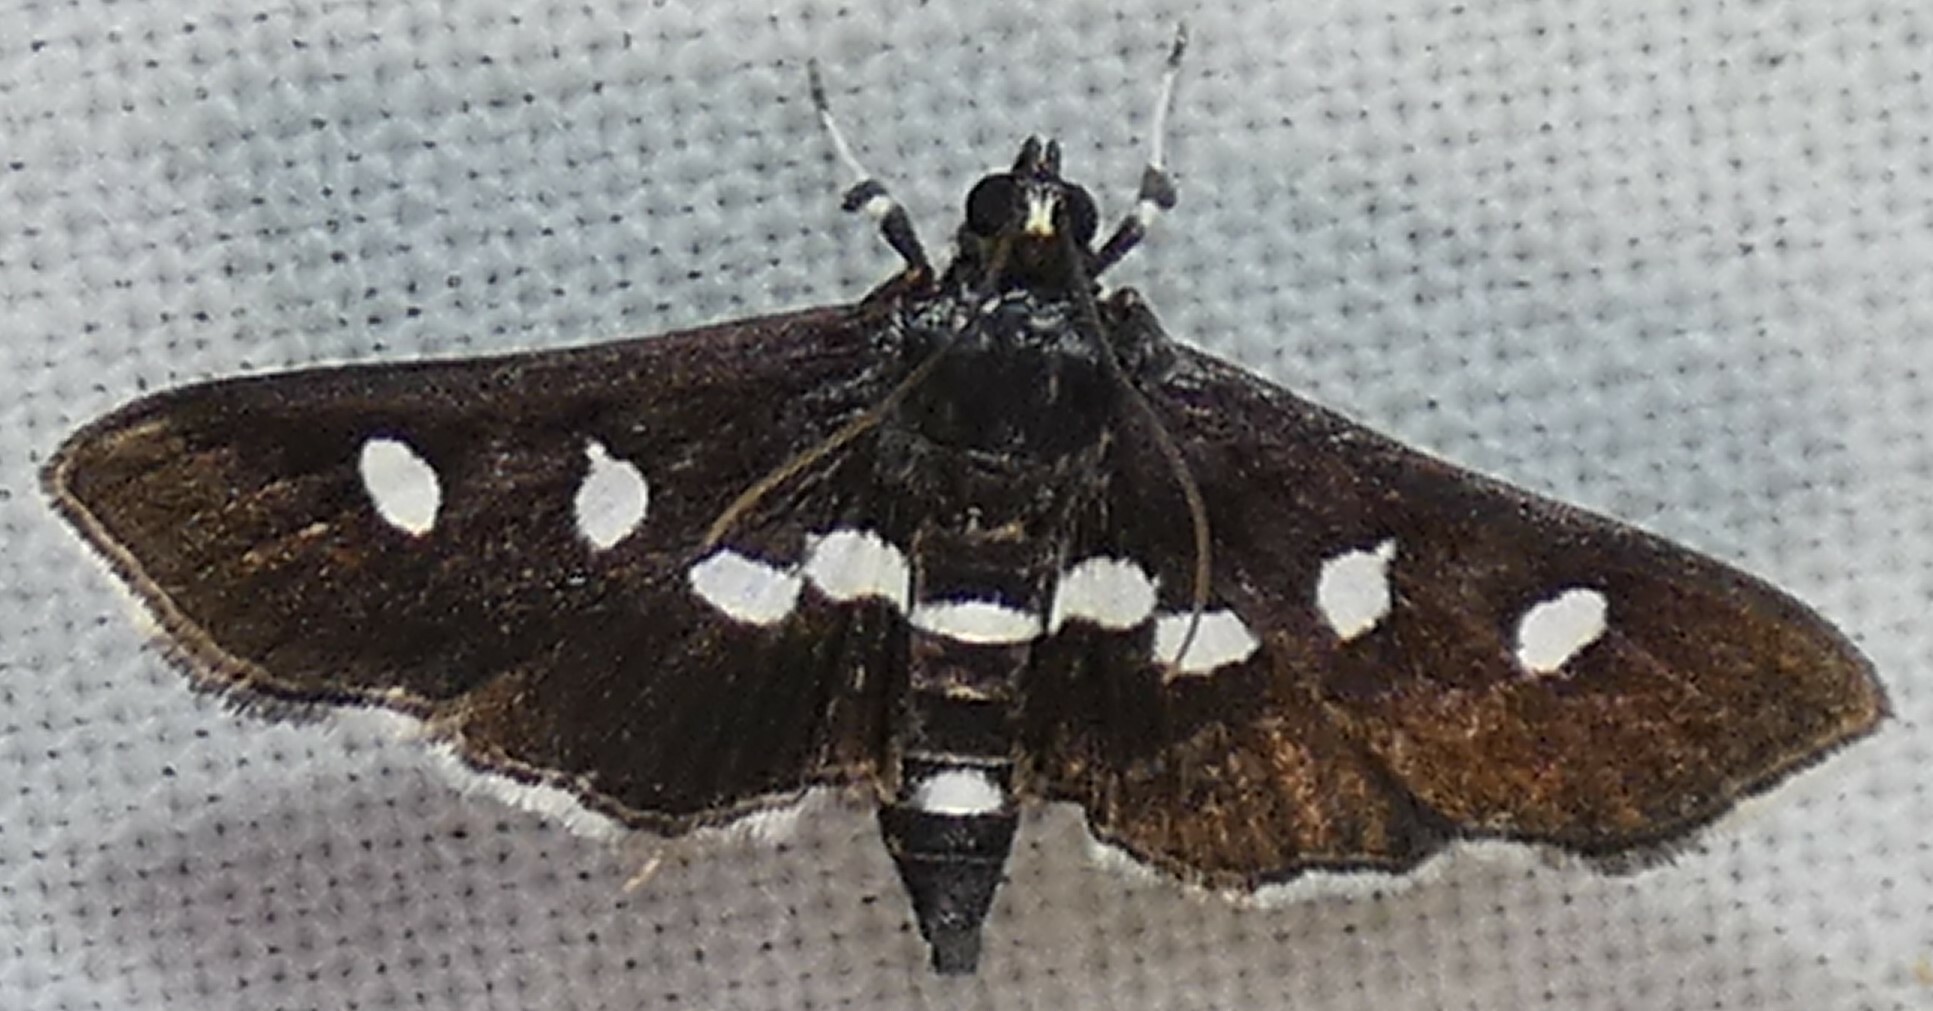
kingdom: Animalia
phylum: Arthropoda
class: Insecta
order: Lepidoptera
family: Crambidae
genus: Desmia
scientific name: Desmia funeralis
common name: Grape leaf folder moth
